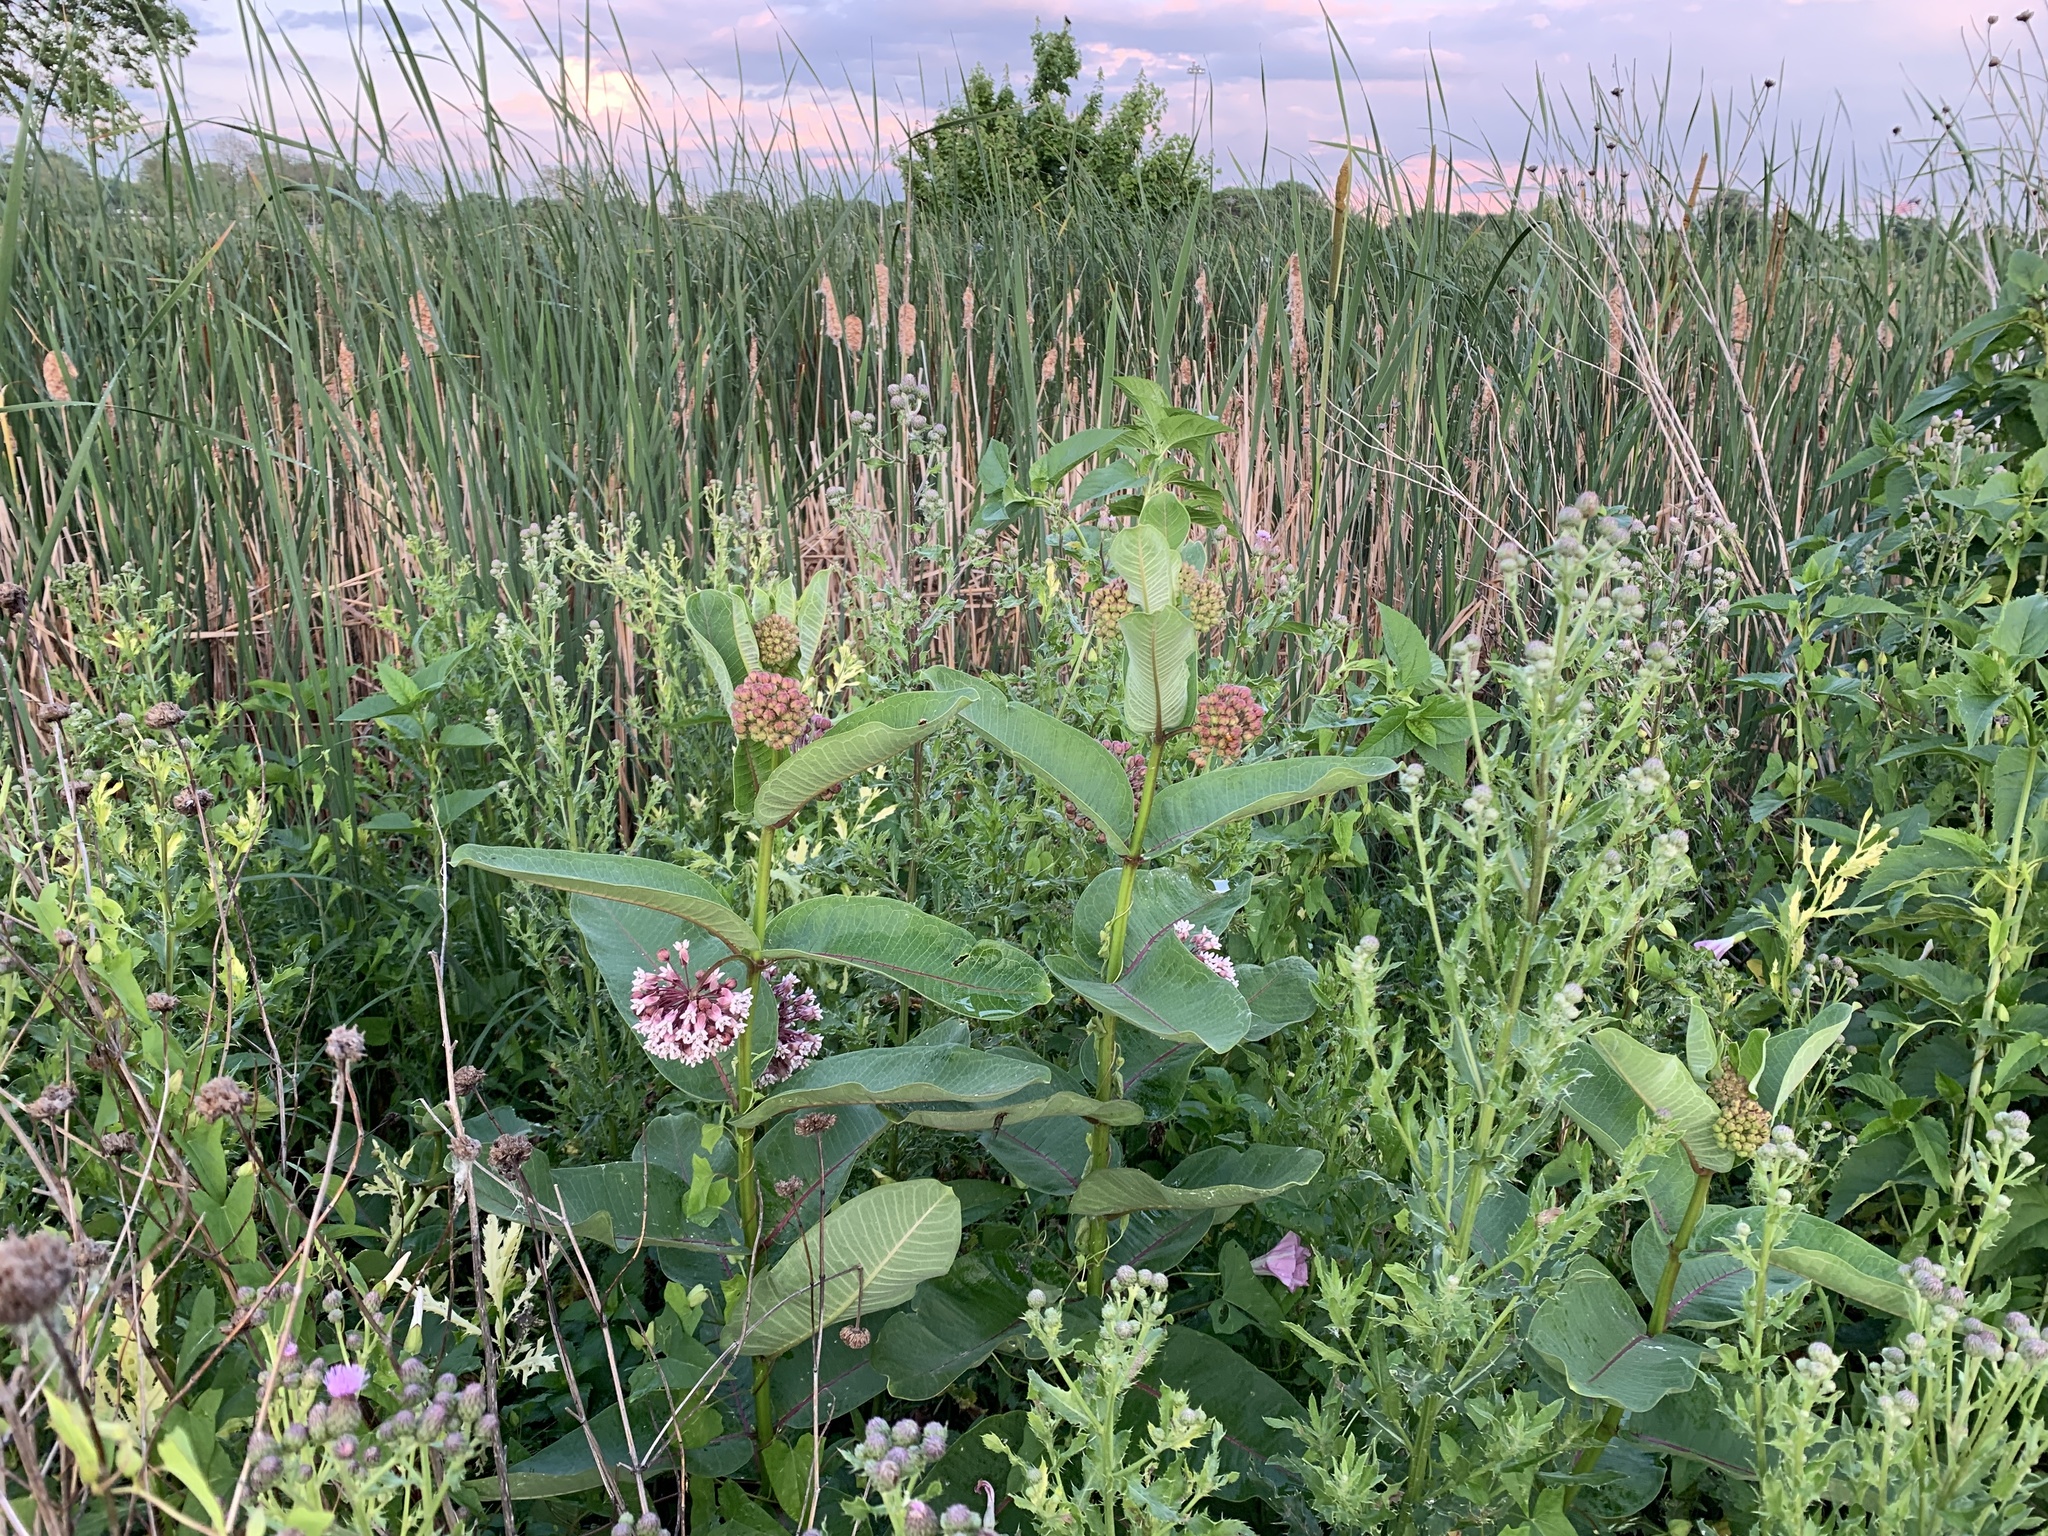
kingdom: Plantae
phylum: Tracheophyta
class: Magnoliopsida
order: Gentianales
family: Apocynaceae
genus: Asclepias
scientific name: Asclepias syriaca
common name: Common milkweed
